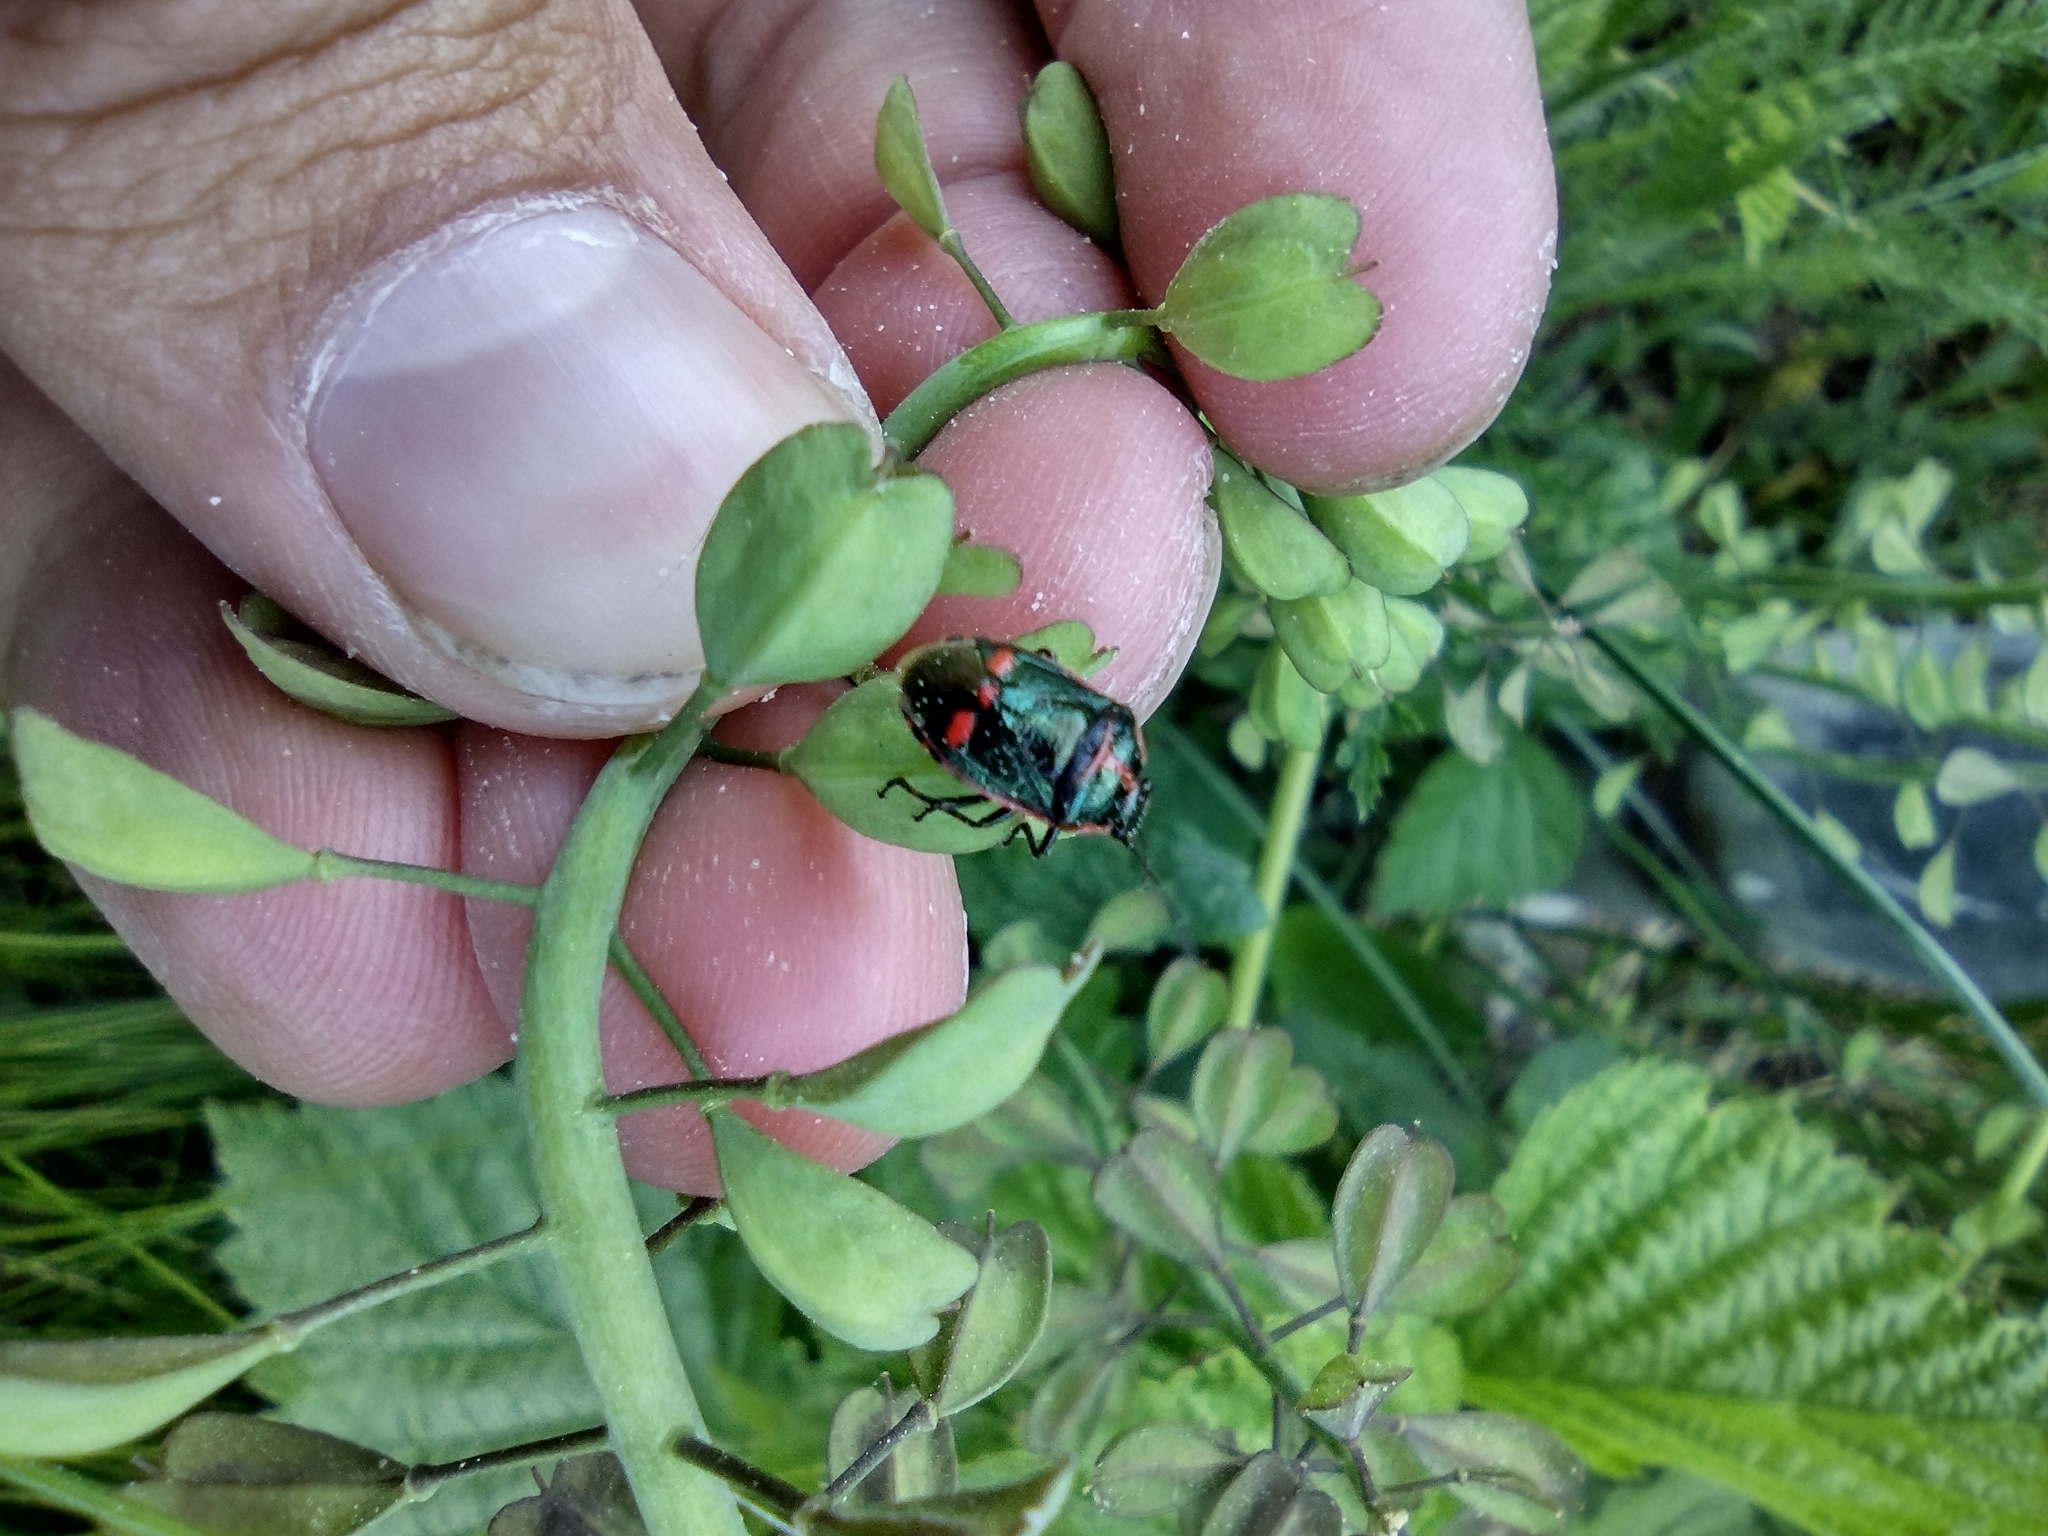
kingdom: Animalia
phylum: Arthropoda
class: Insecta
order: Hemiptera
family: Pentatomidae
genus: Eurydema
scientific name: Eurydema oleracea
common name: Cabbage bug
